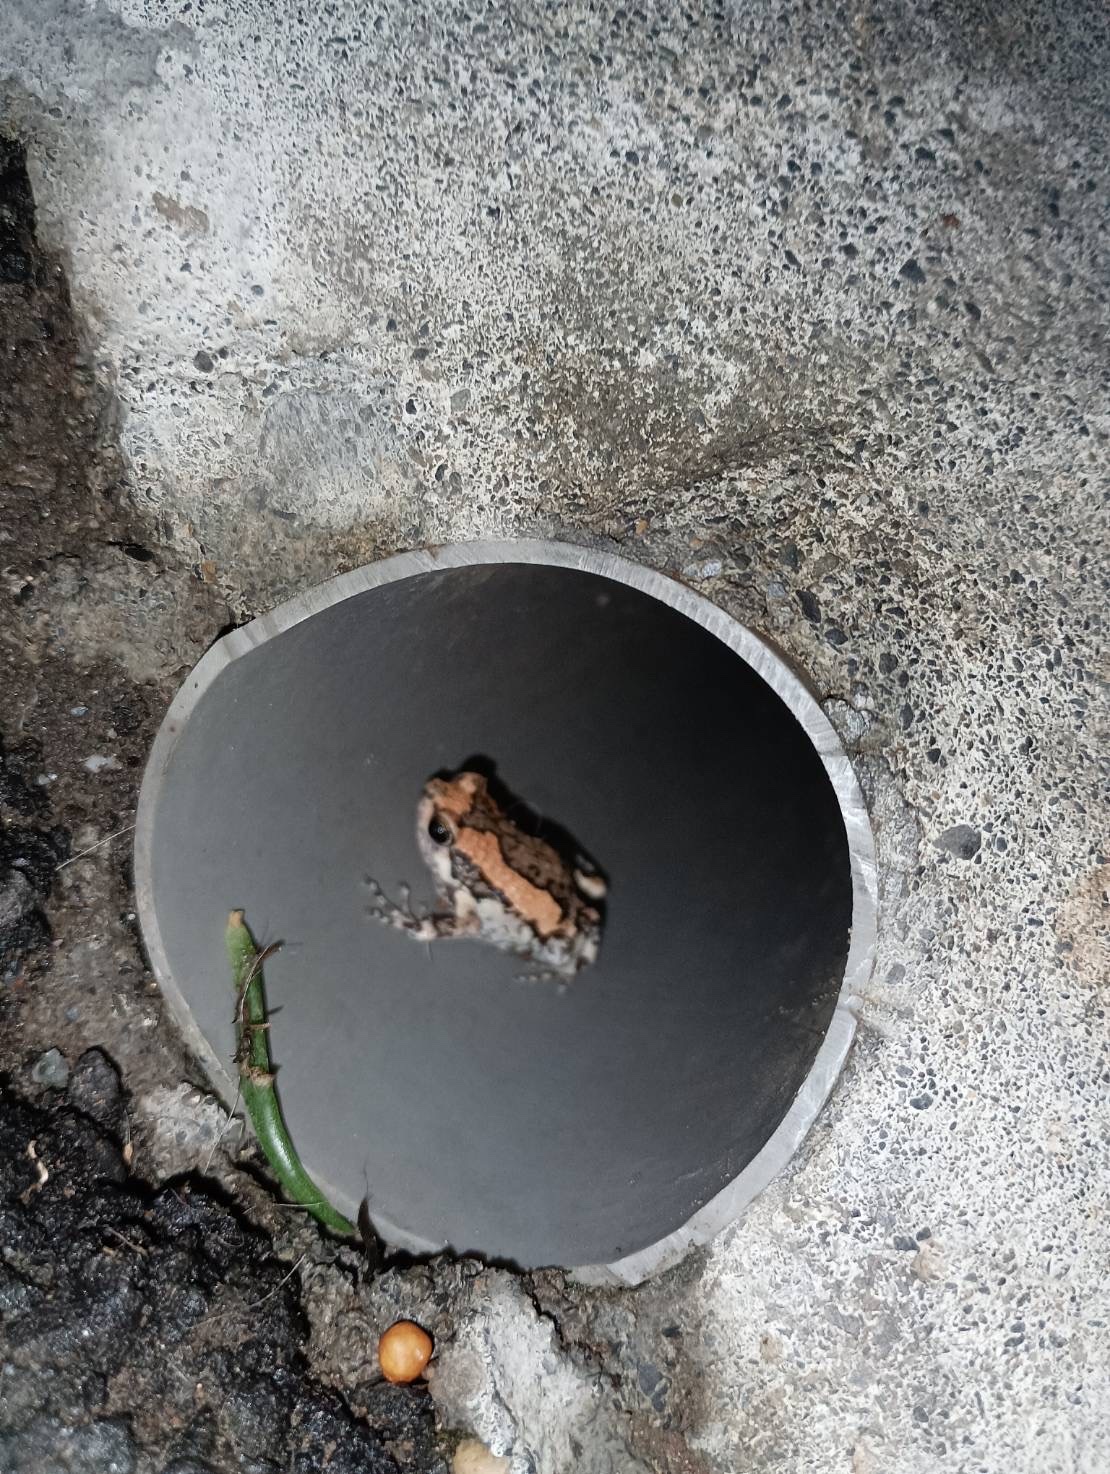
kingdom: Animalia
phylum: Chordata
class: Amphibia
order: Anura
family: Microhylidae
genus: Kaloula
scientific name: Kaloula pulchra
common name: Common,banded bullfrog
